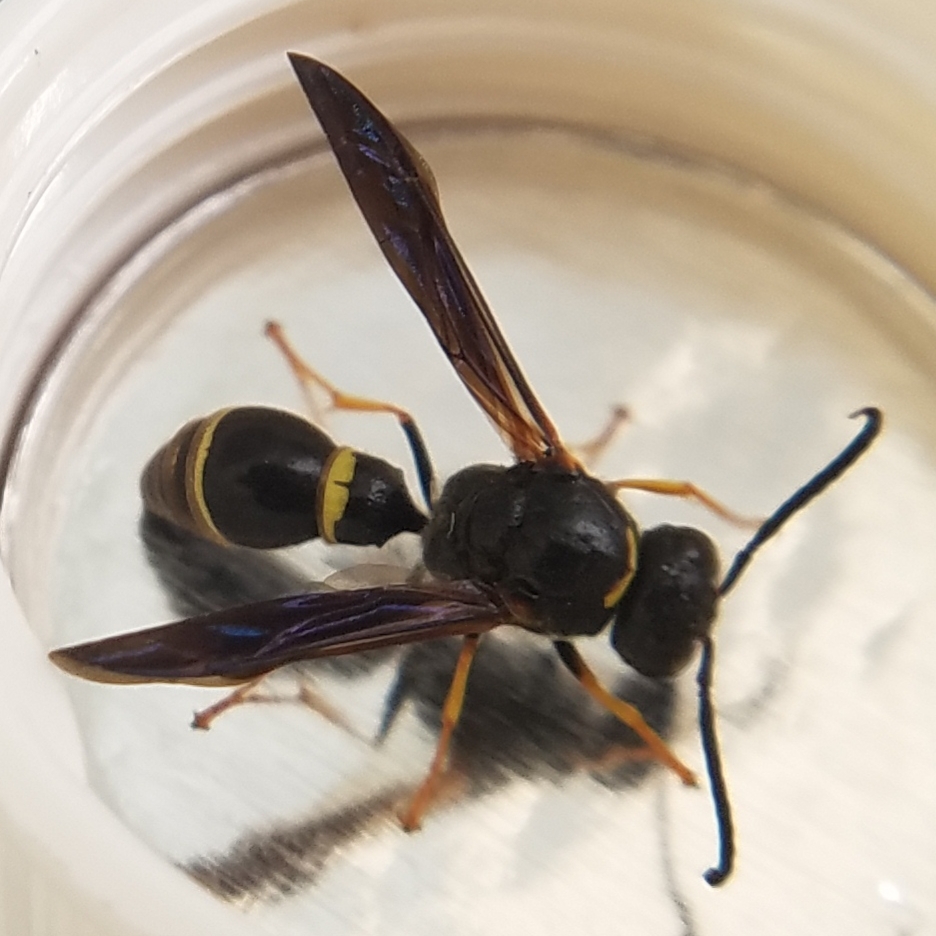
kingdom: Animalia
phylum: Arthropoda
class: Insecta
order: Hymenoptera
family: Eumenidae
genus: Parazumia
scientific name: Parazumia symmorpha
